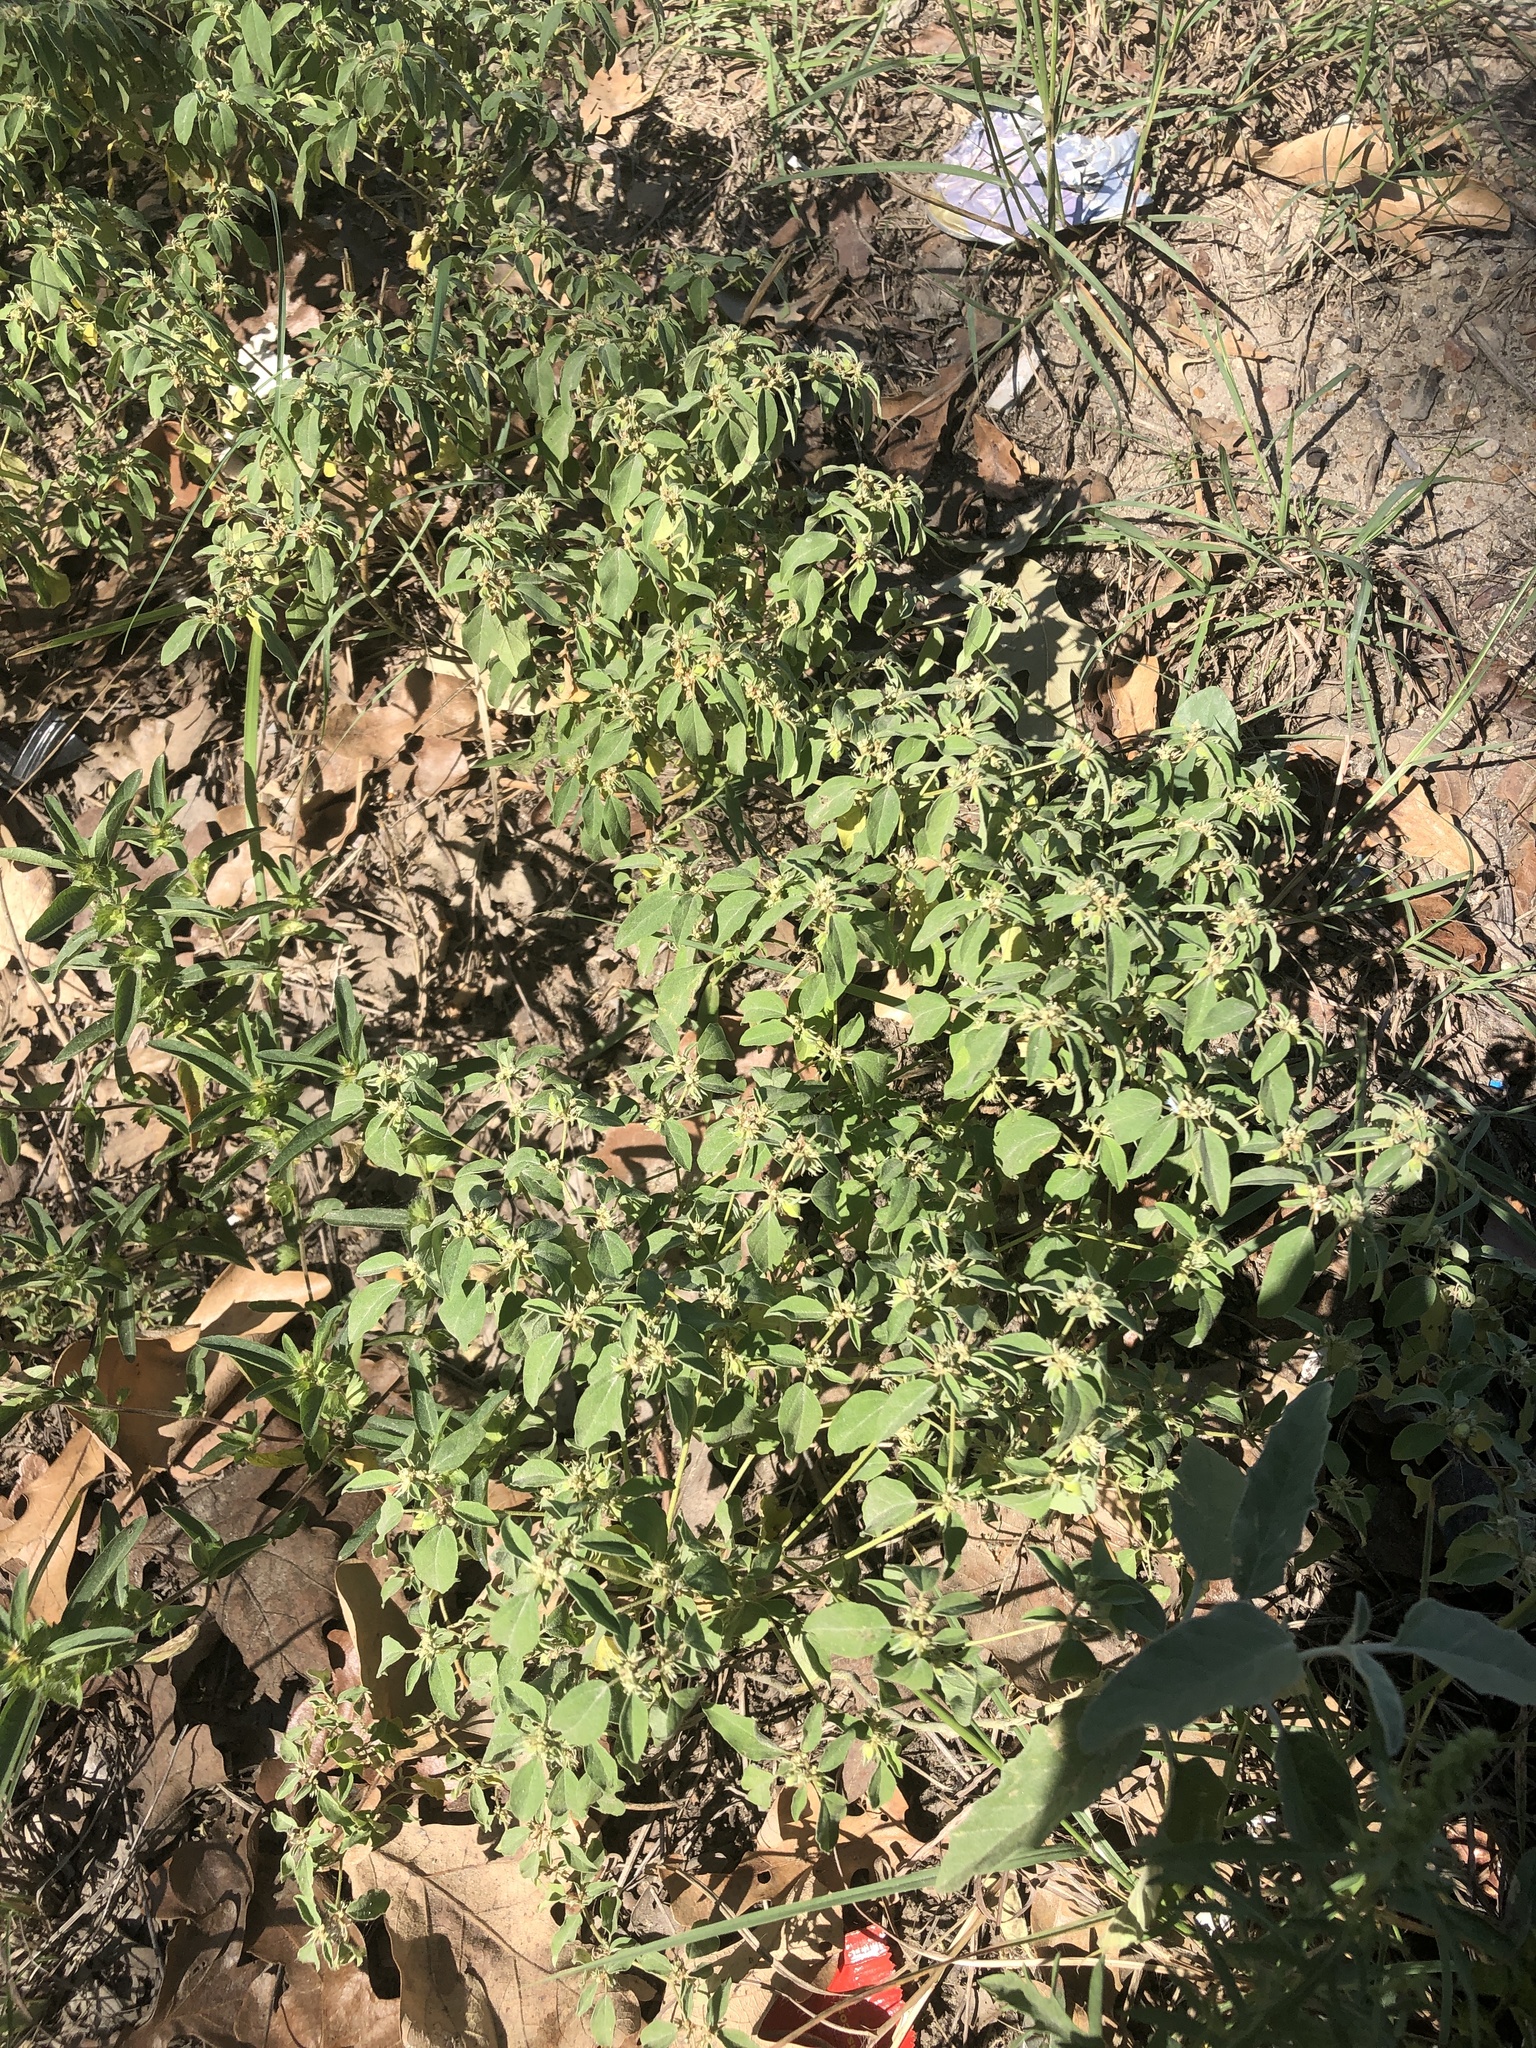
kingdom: Plantae
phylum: Tracheophyta
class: Magnoliopsida
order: Malpighiales
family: Euphorbiaceae
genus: Croton
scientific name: Croton monanthogynus
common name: One-seed croton
